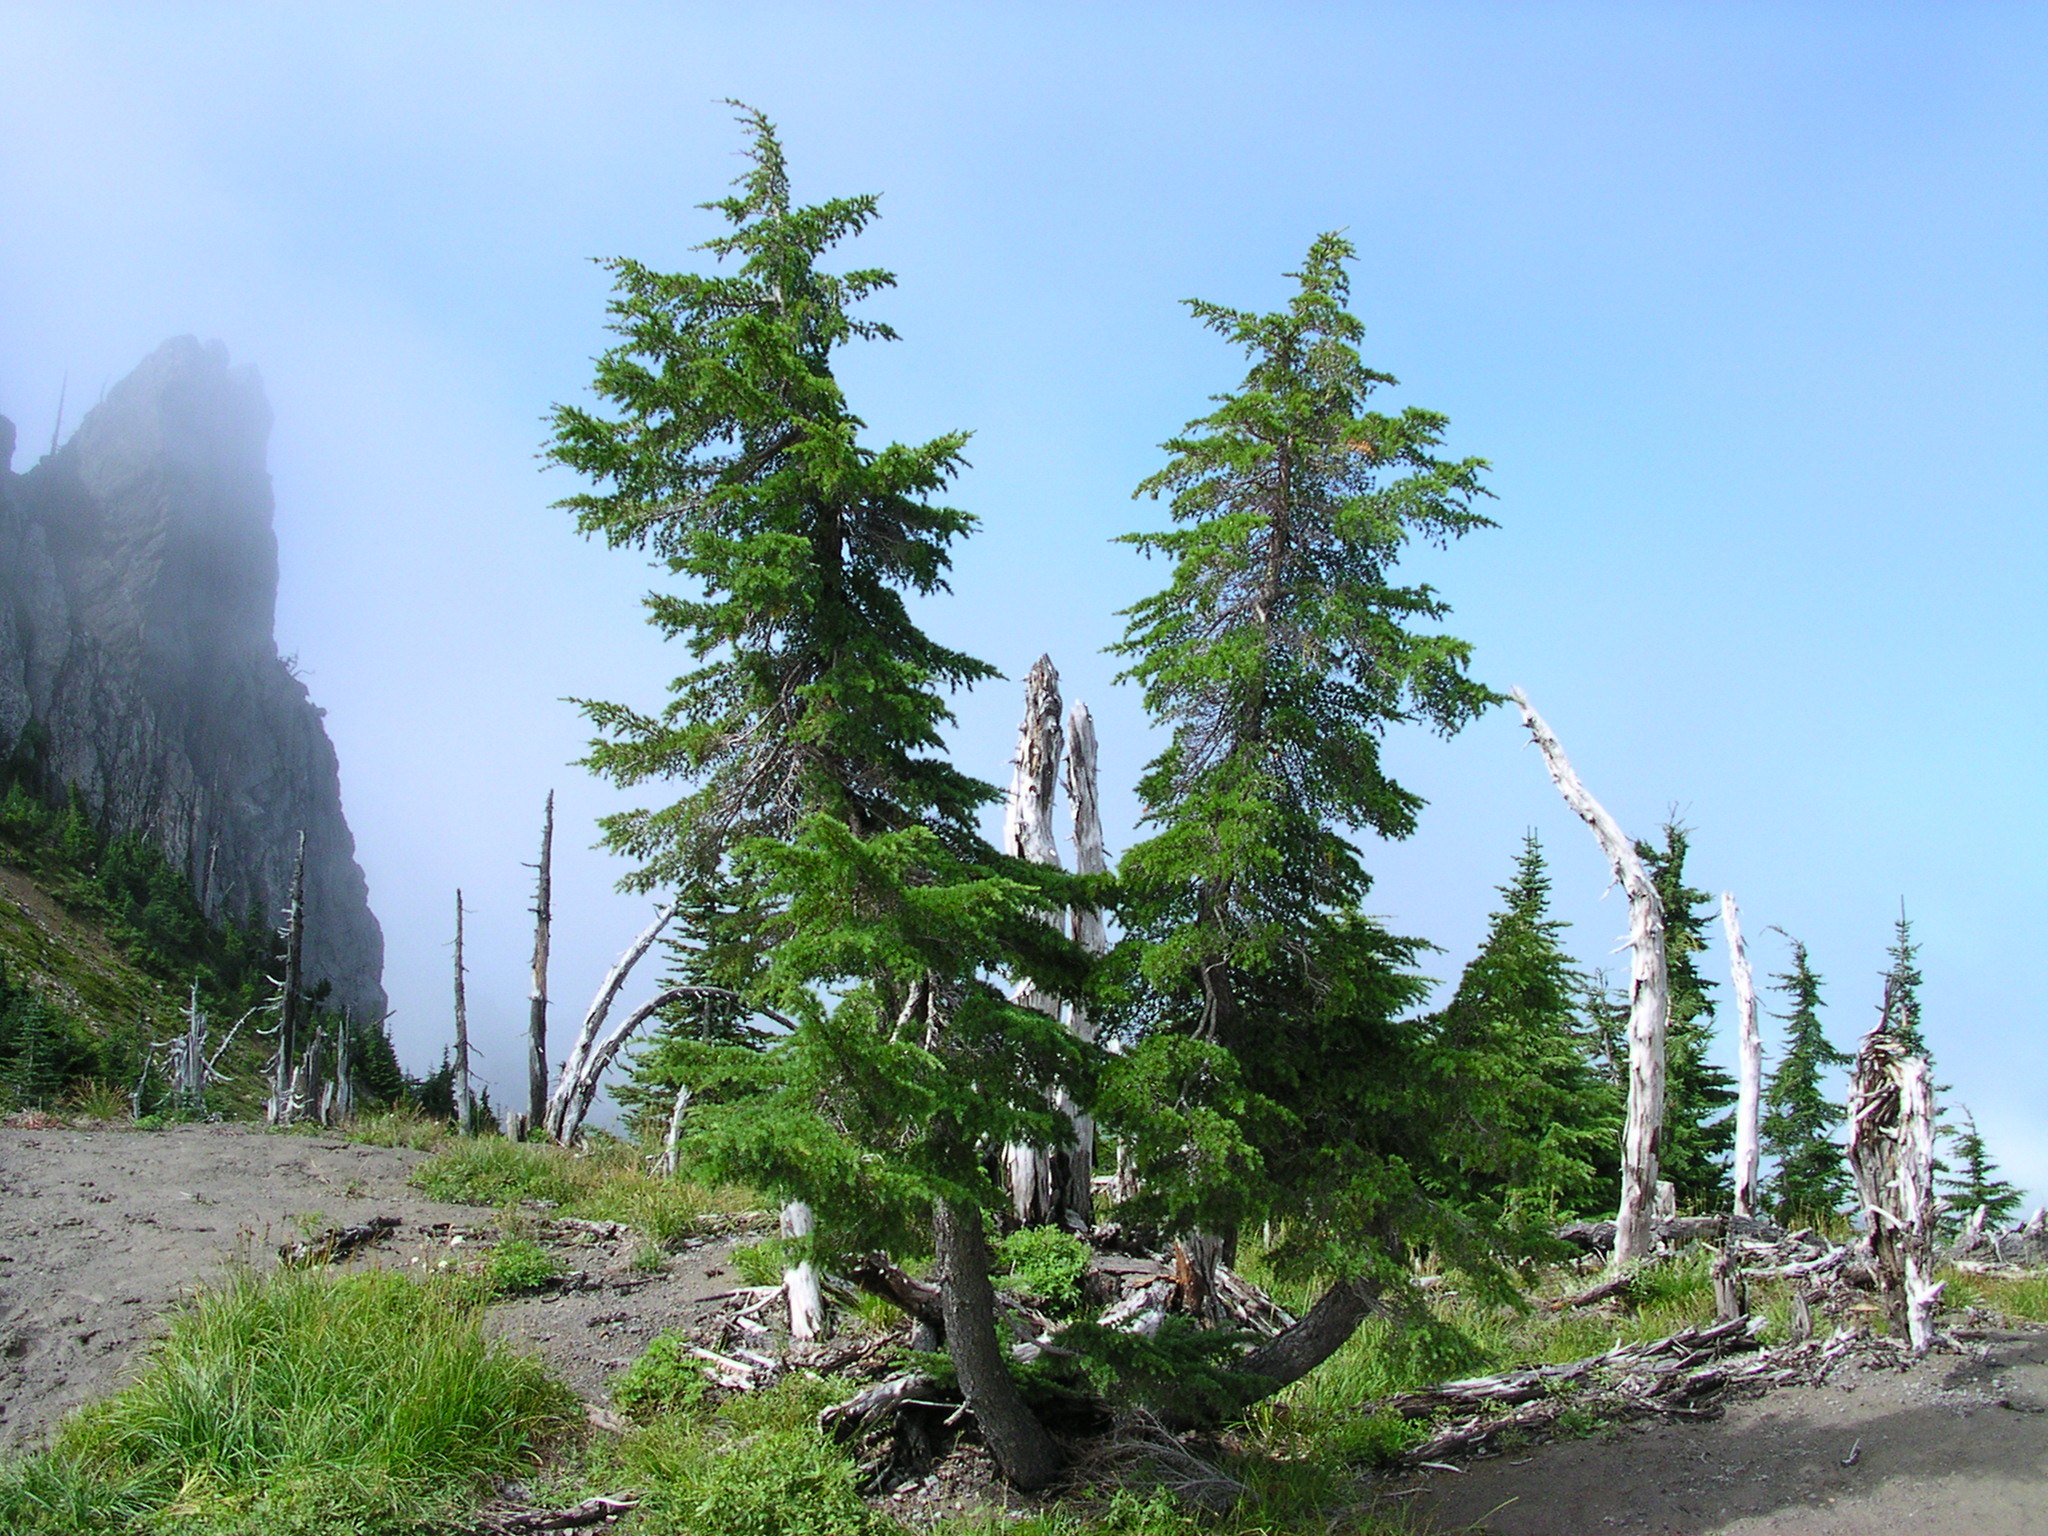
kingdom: Plantae
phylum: Tracheophyta
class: Pinopsida
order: Pinales
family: Pinaceae
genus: Tsuga
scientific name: Tsuga mertensiana
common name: Mountain hemlock
